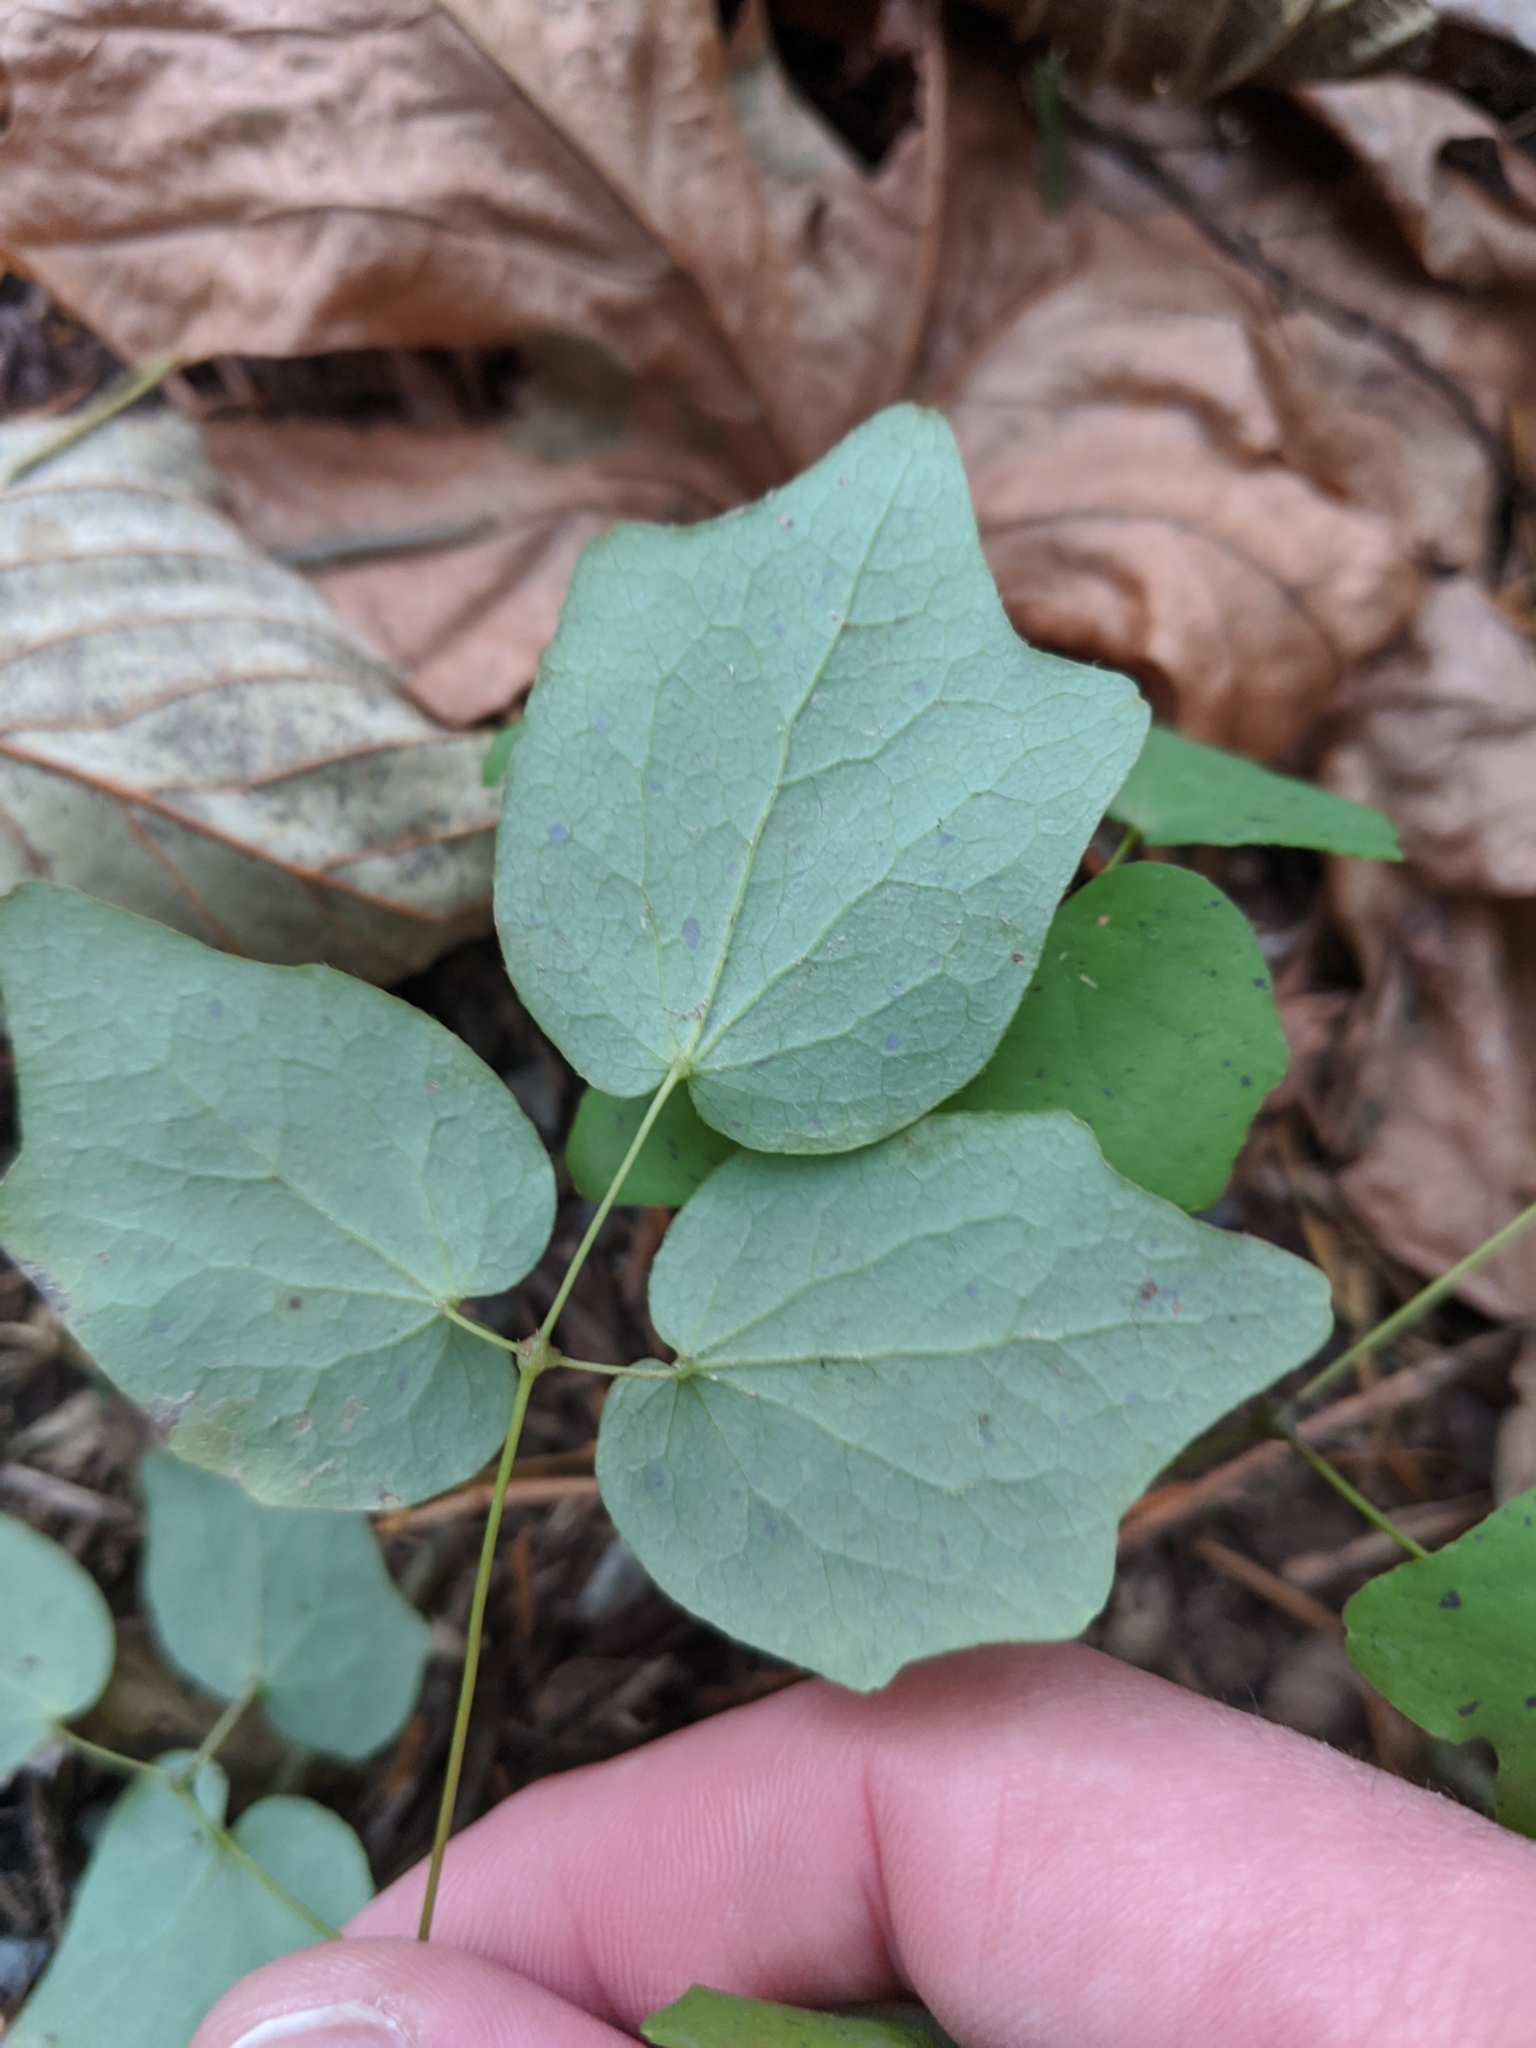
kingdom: Plantae
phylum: Tracheophyta
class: Magnoliopsida
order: Ranunculales
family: Berberidaceae
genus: Vancouveria
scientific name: Vancouveria hexandra
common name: Northern inside-out-flower
